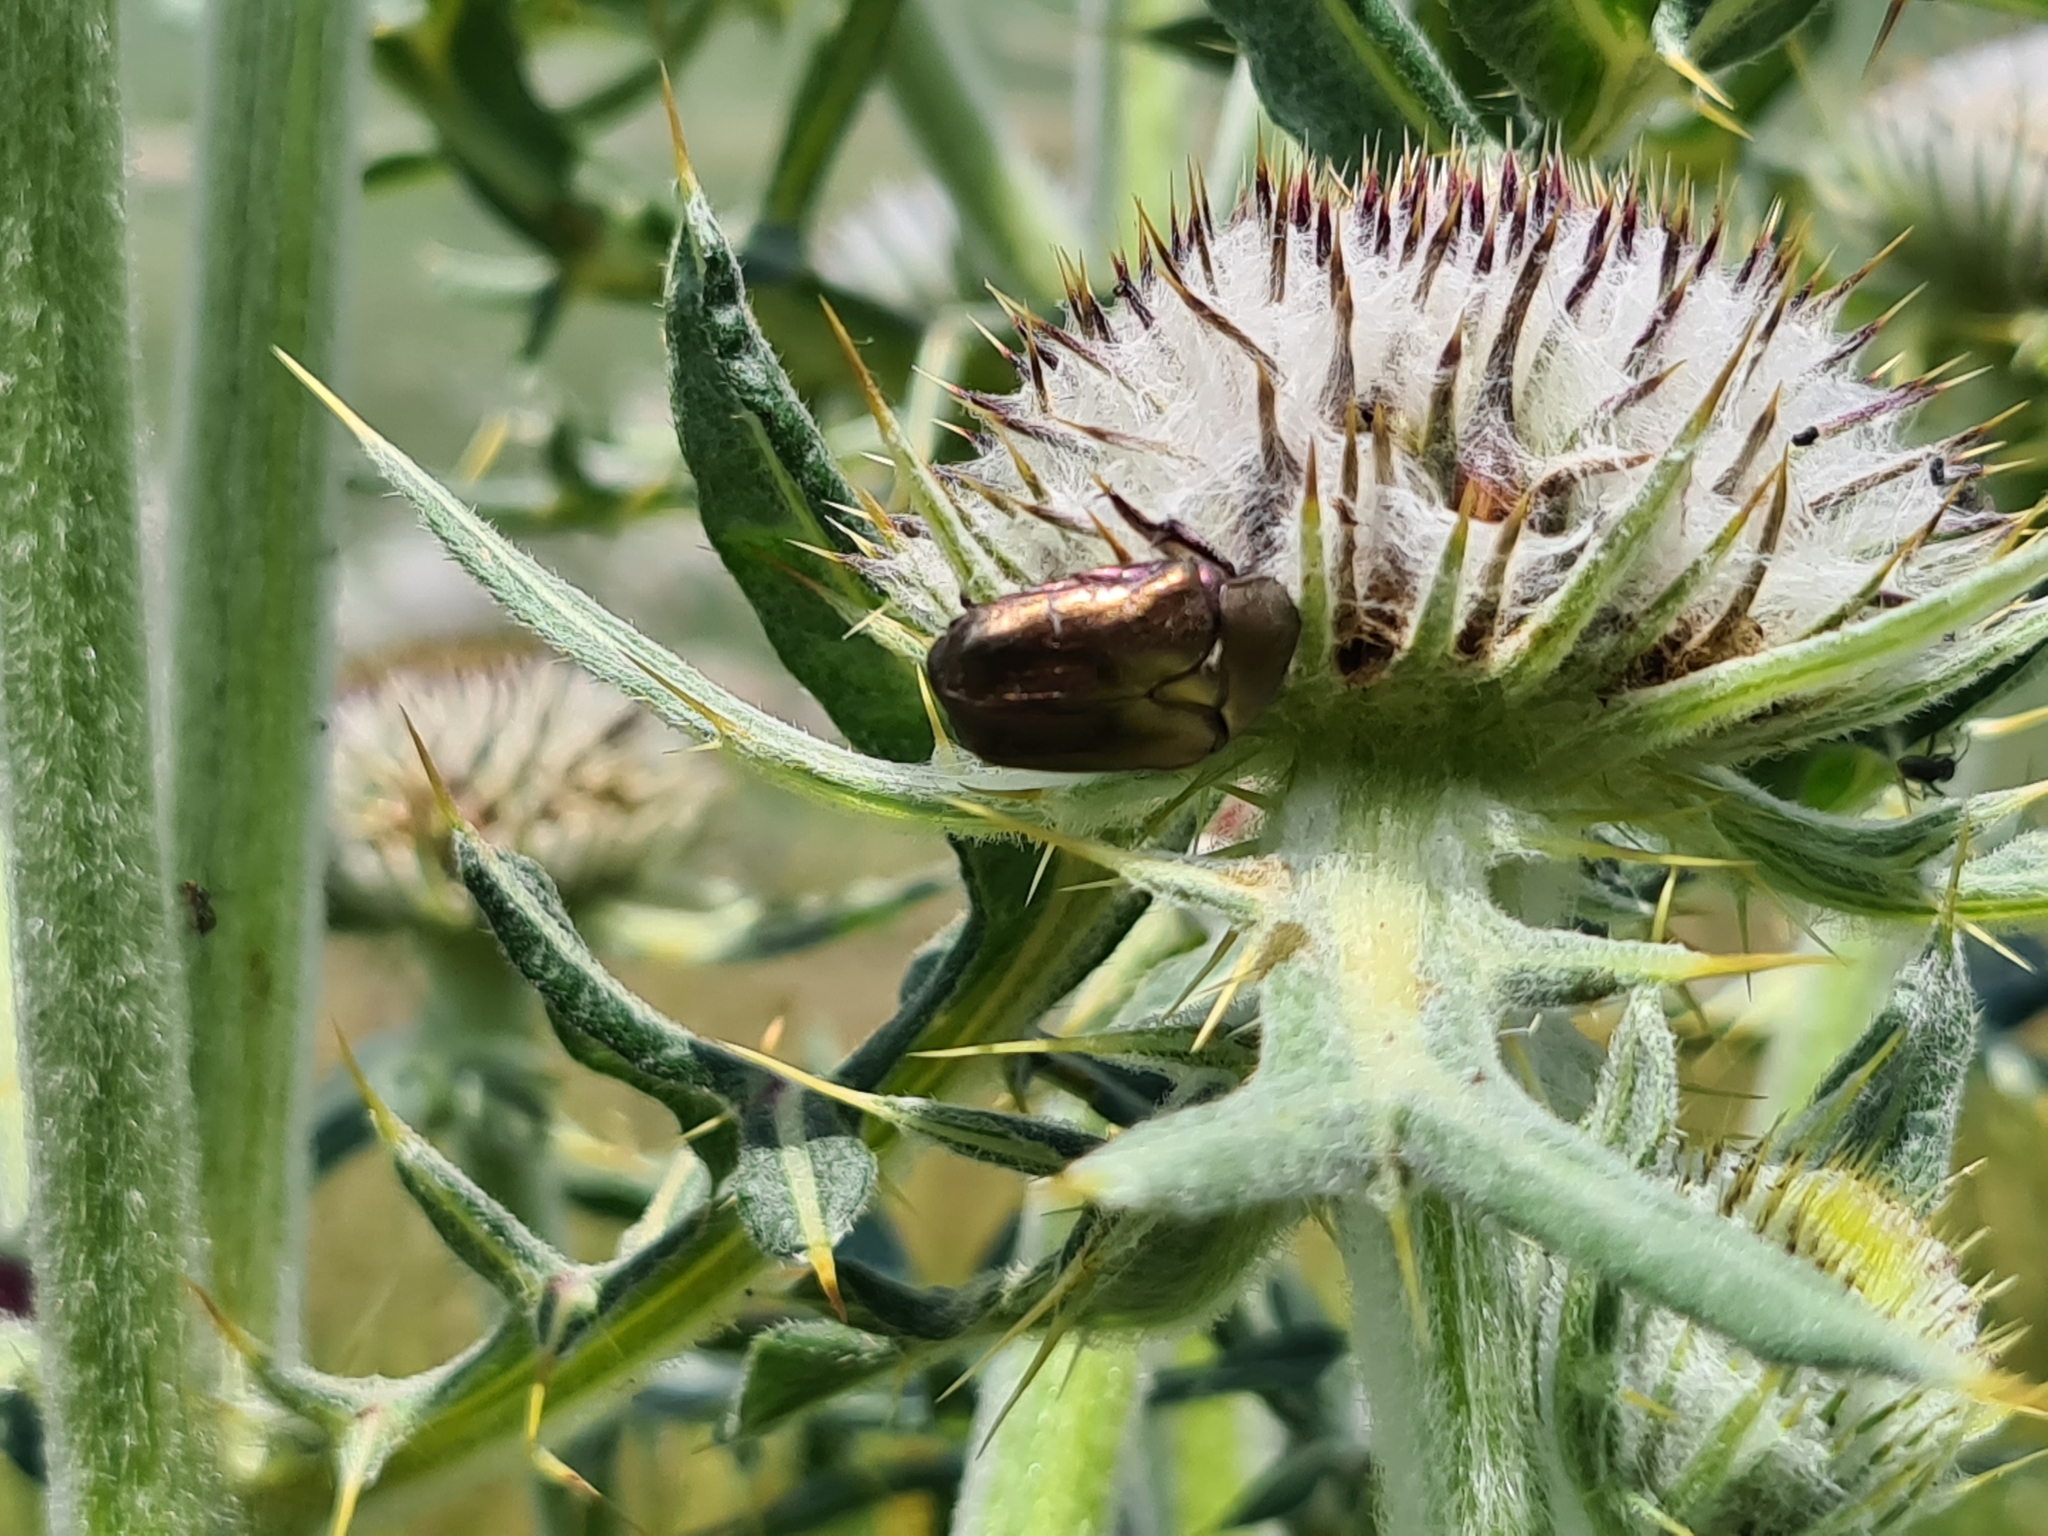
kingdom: Animalia
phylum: Arthropoda
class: Insecta
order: Coleoptera
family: Scarabaeidae
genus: Protaetia
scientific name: Protaetia cuprea
